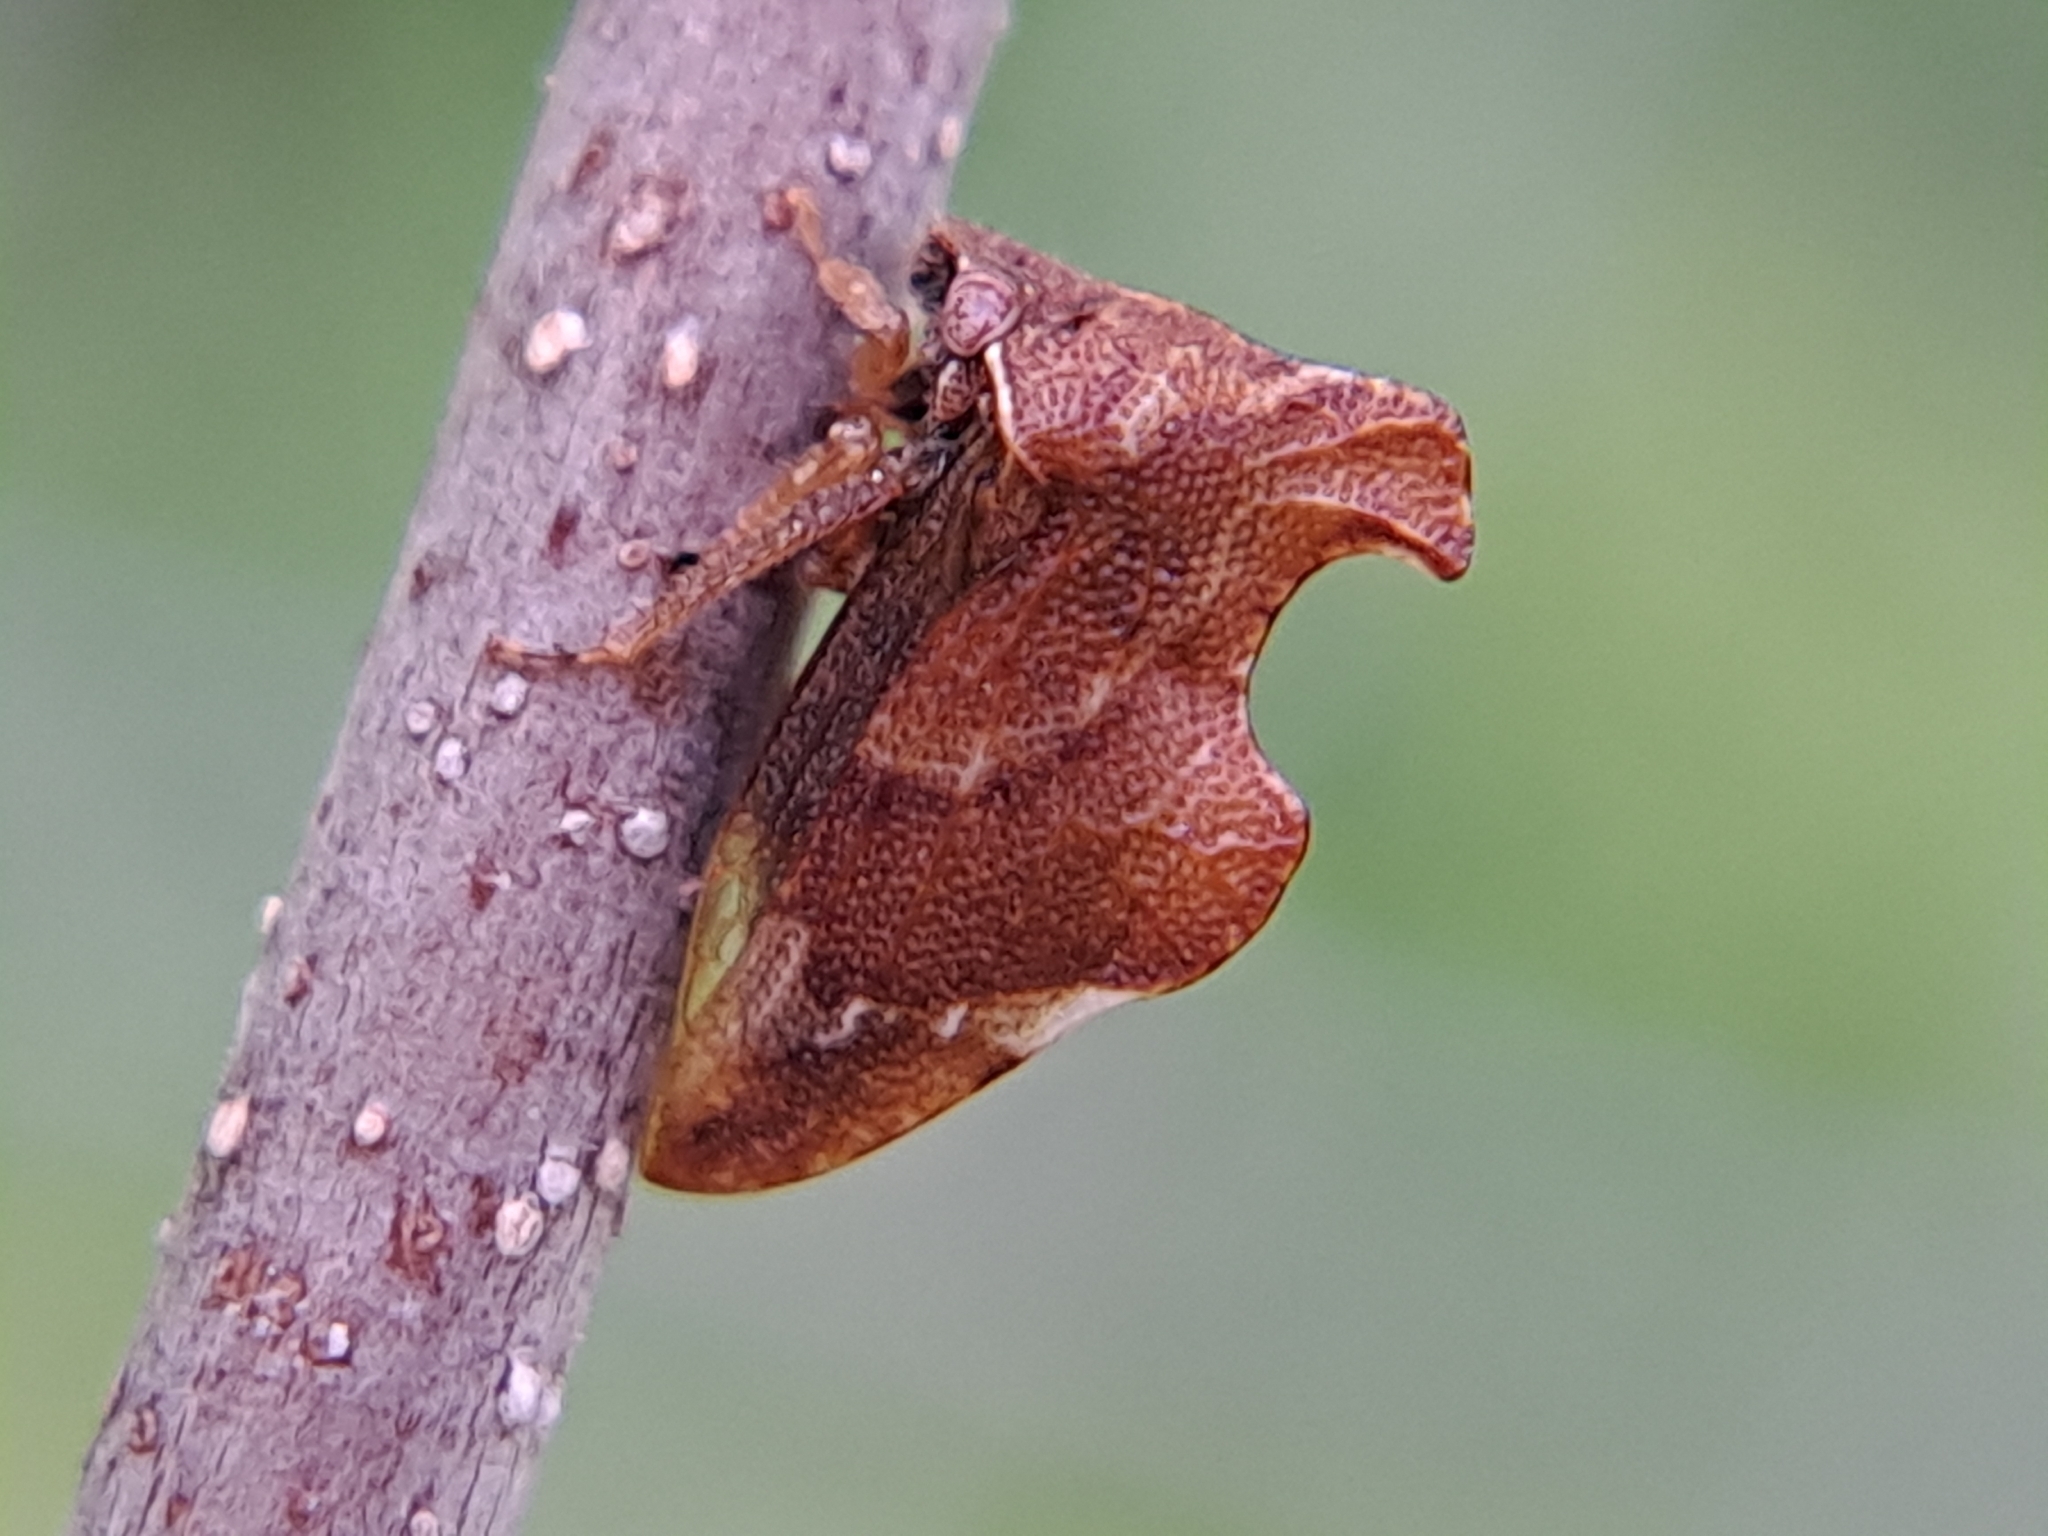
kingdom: Animalia
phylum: Arthropoda
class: Insecta
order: Hemiptera
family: Membracidae
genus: Entylia
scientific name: Entylia carinata
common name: Keeled treehopper
